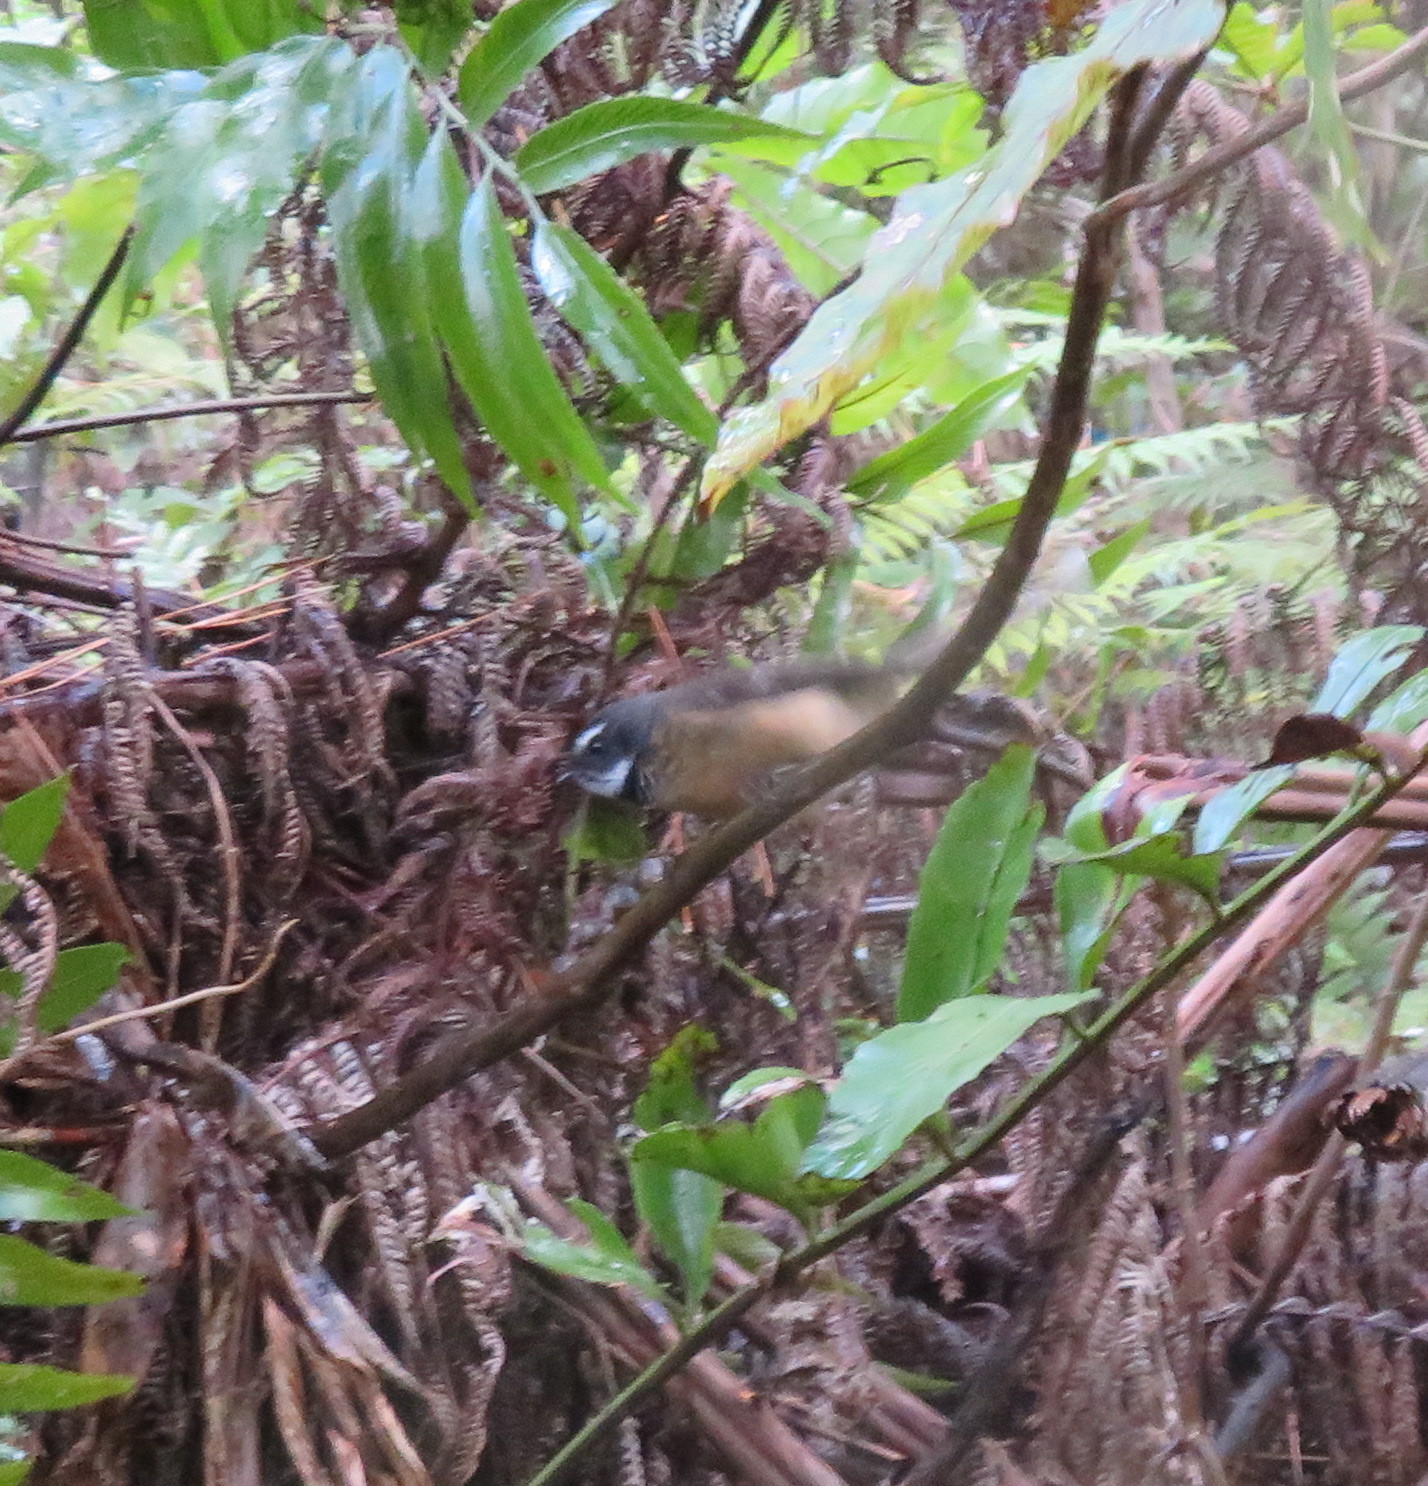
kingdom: Animalia
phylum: Chordata
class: Aves
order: Passeriformes
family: Rhipiduridae
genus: Rhipidura
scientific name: Rhipidura fuliginosa
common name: New zealand fantail
